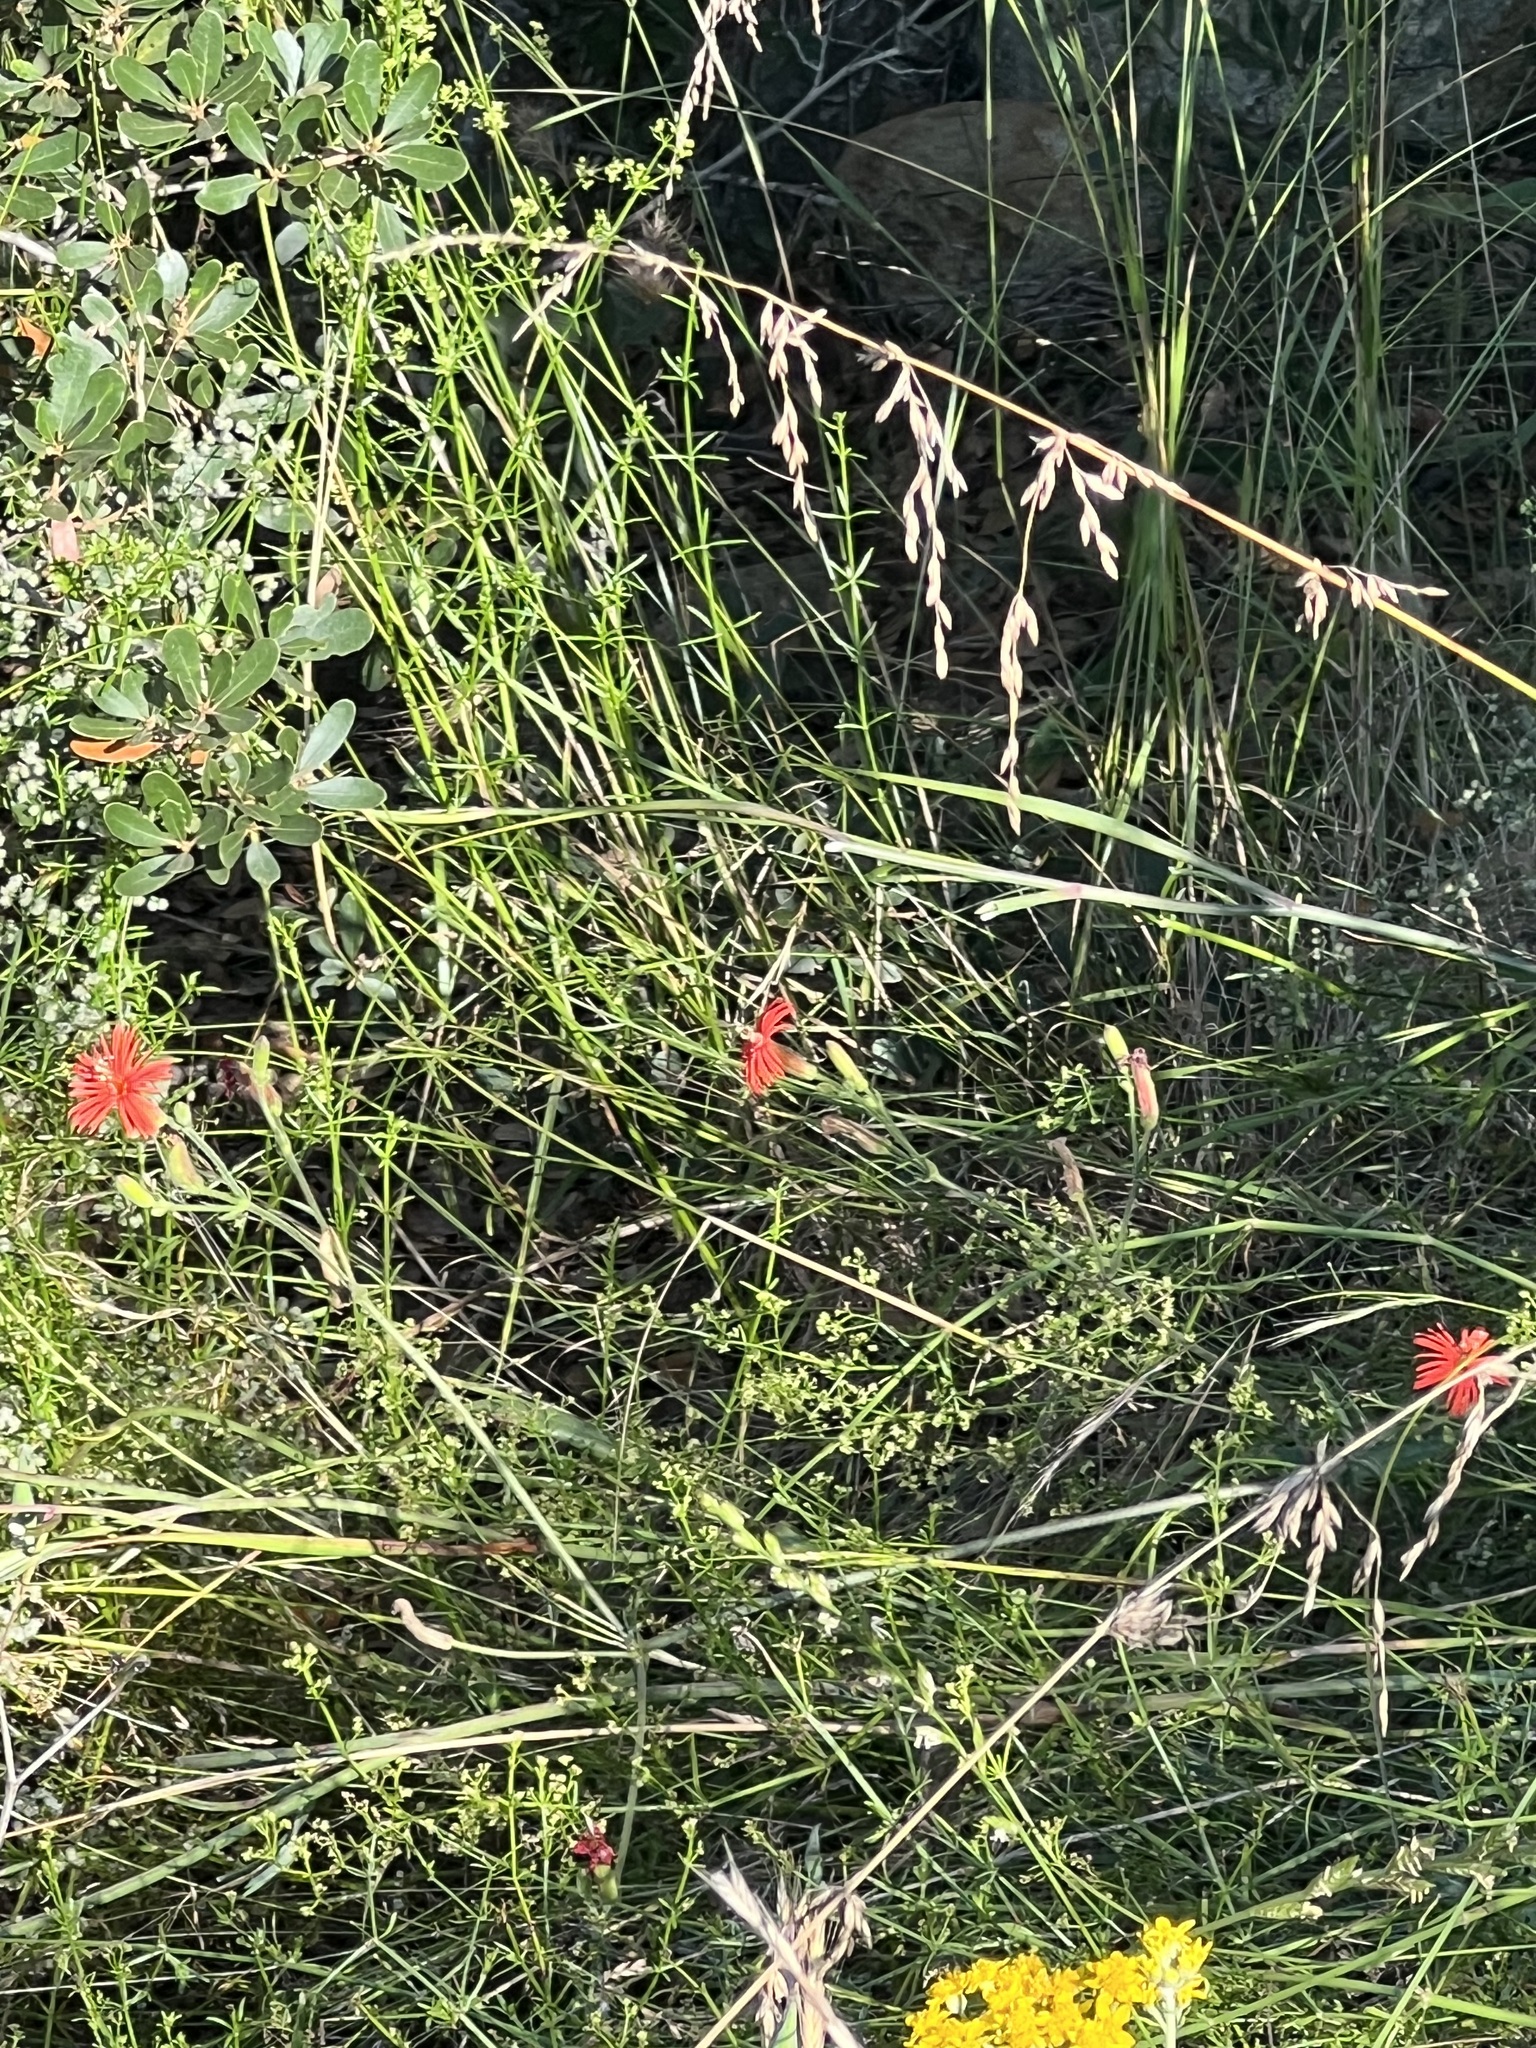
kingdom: Plantae
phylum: Tracheophyta
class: Magnoliopsida
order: Caryophyllales
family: Caryophyllaceae
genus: Silene
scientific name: Silene laciniata
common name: Indian-pink
